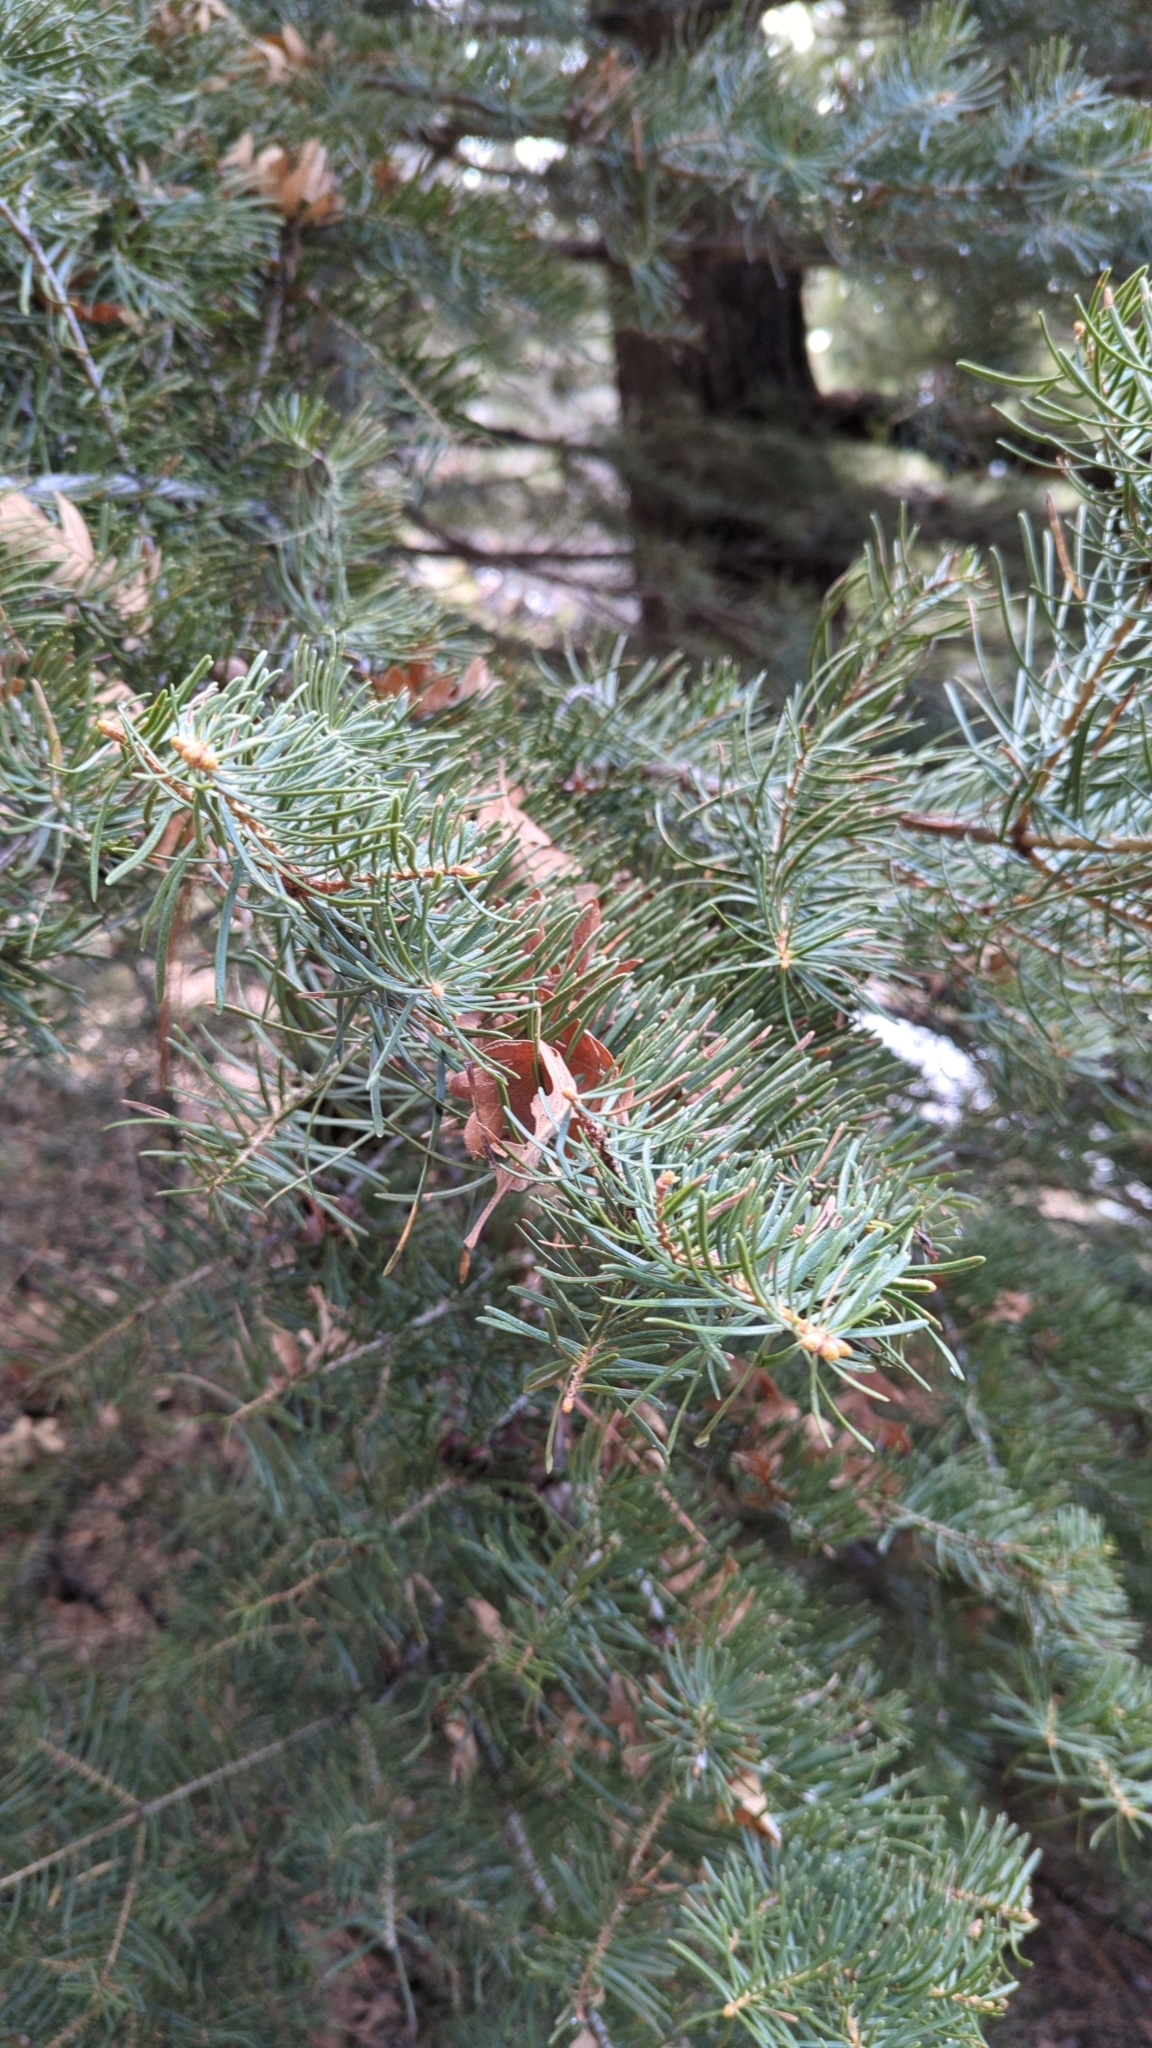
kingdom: Plantae
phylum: Tracheophyta
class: Pinopsida
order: Pinales
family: Pinaceae
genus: Abies
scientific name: Abies concolor
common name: Colorado fir
